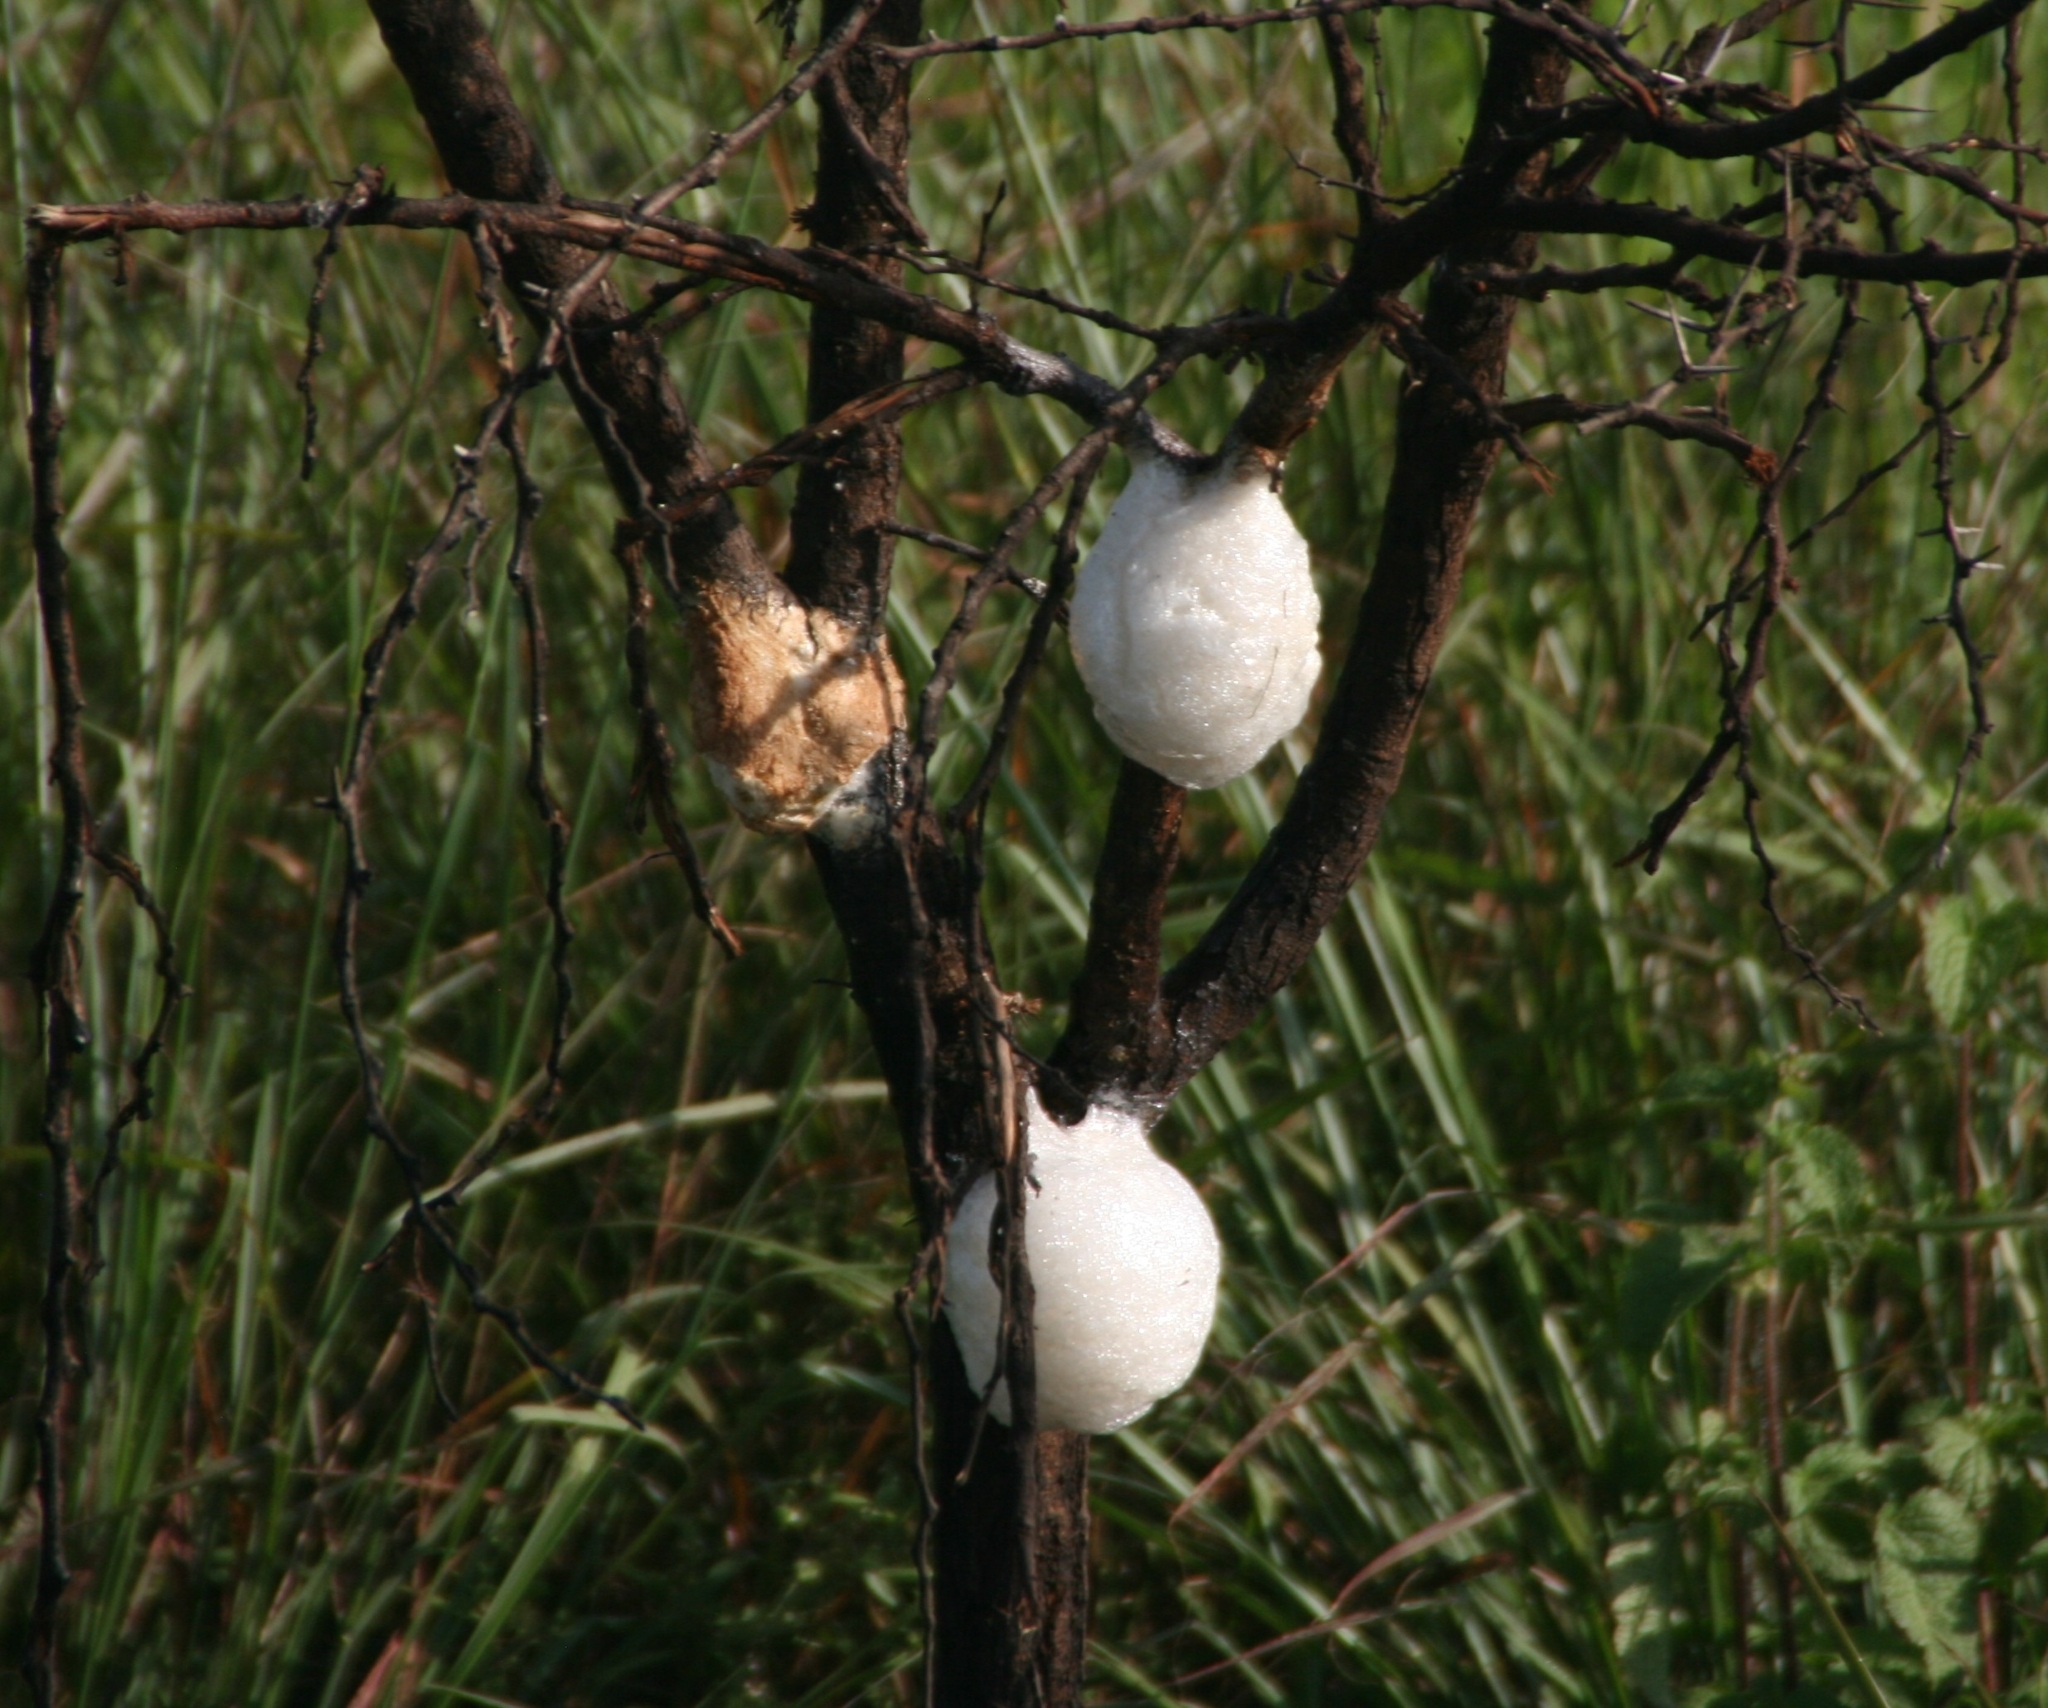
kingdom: Animalia
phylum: Chordata
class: Amphibia
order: Anura
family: Rhacophoridae
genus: Chiromantis
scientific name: Chiromantis xerampelina
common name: African gray treefrog
